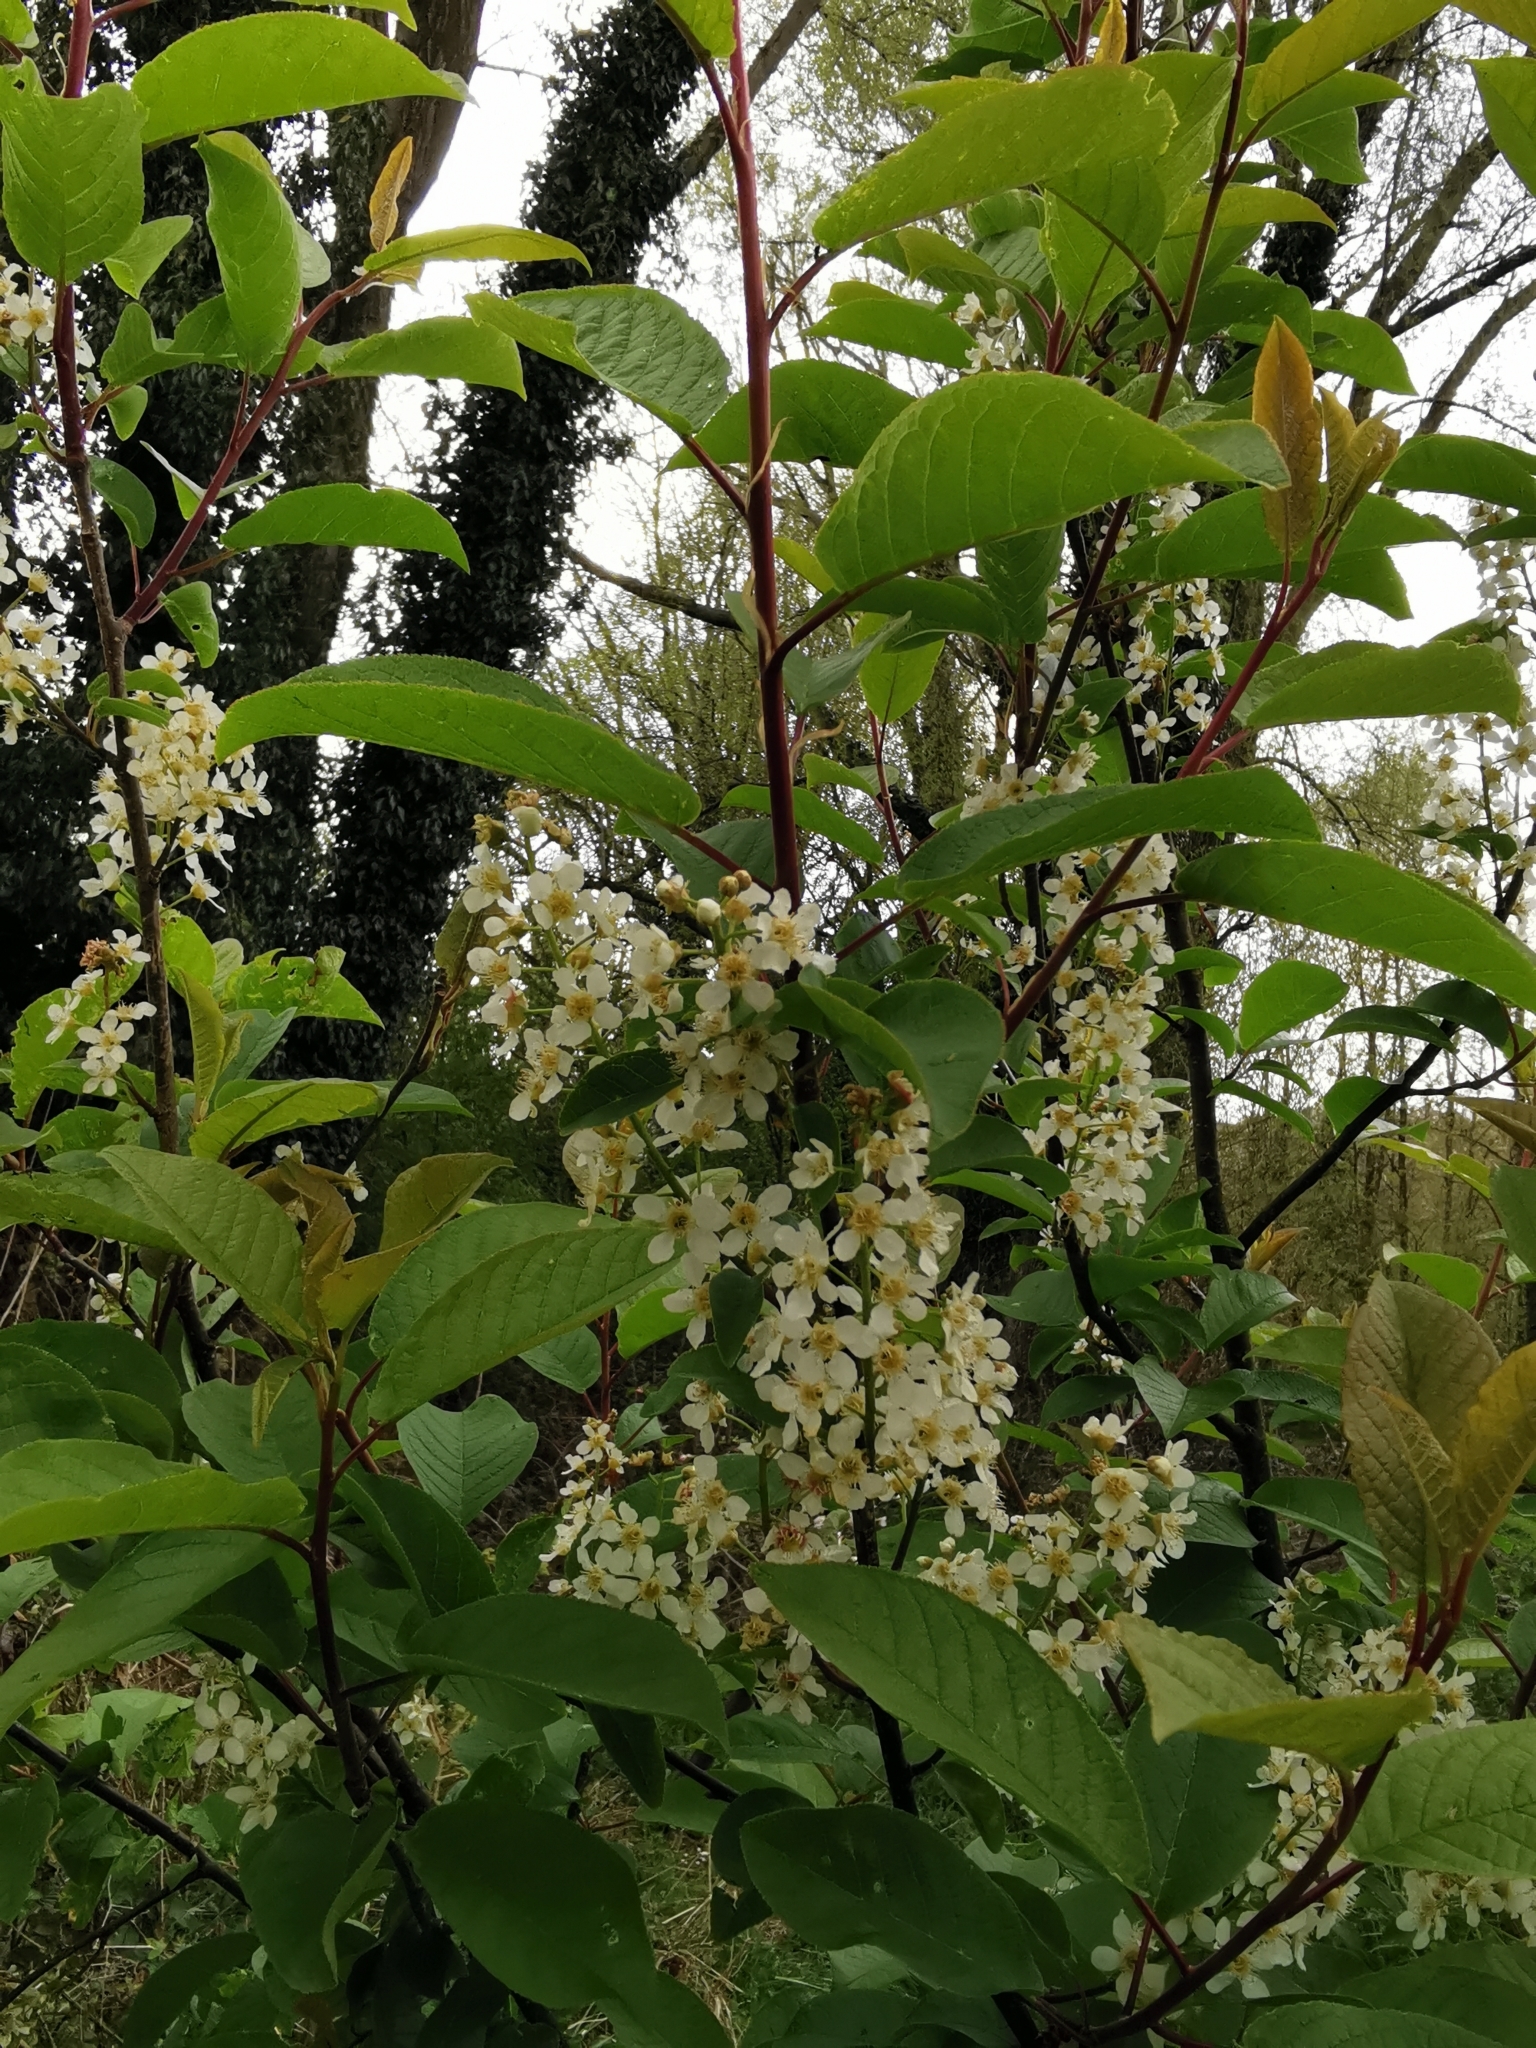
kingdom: Plantae
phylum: Tracheophyta
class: Magnoliopsida
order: Rosales
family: Rosaceae
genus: Prunus
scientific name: Prunus padus
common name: Bird cherry
